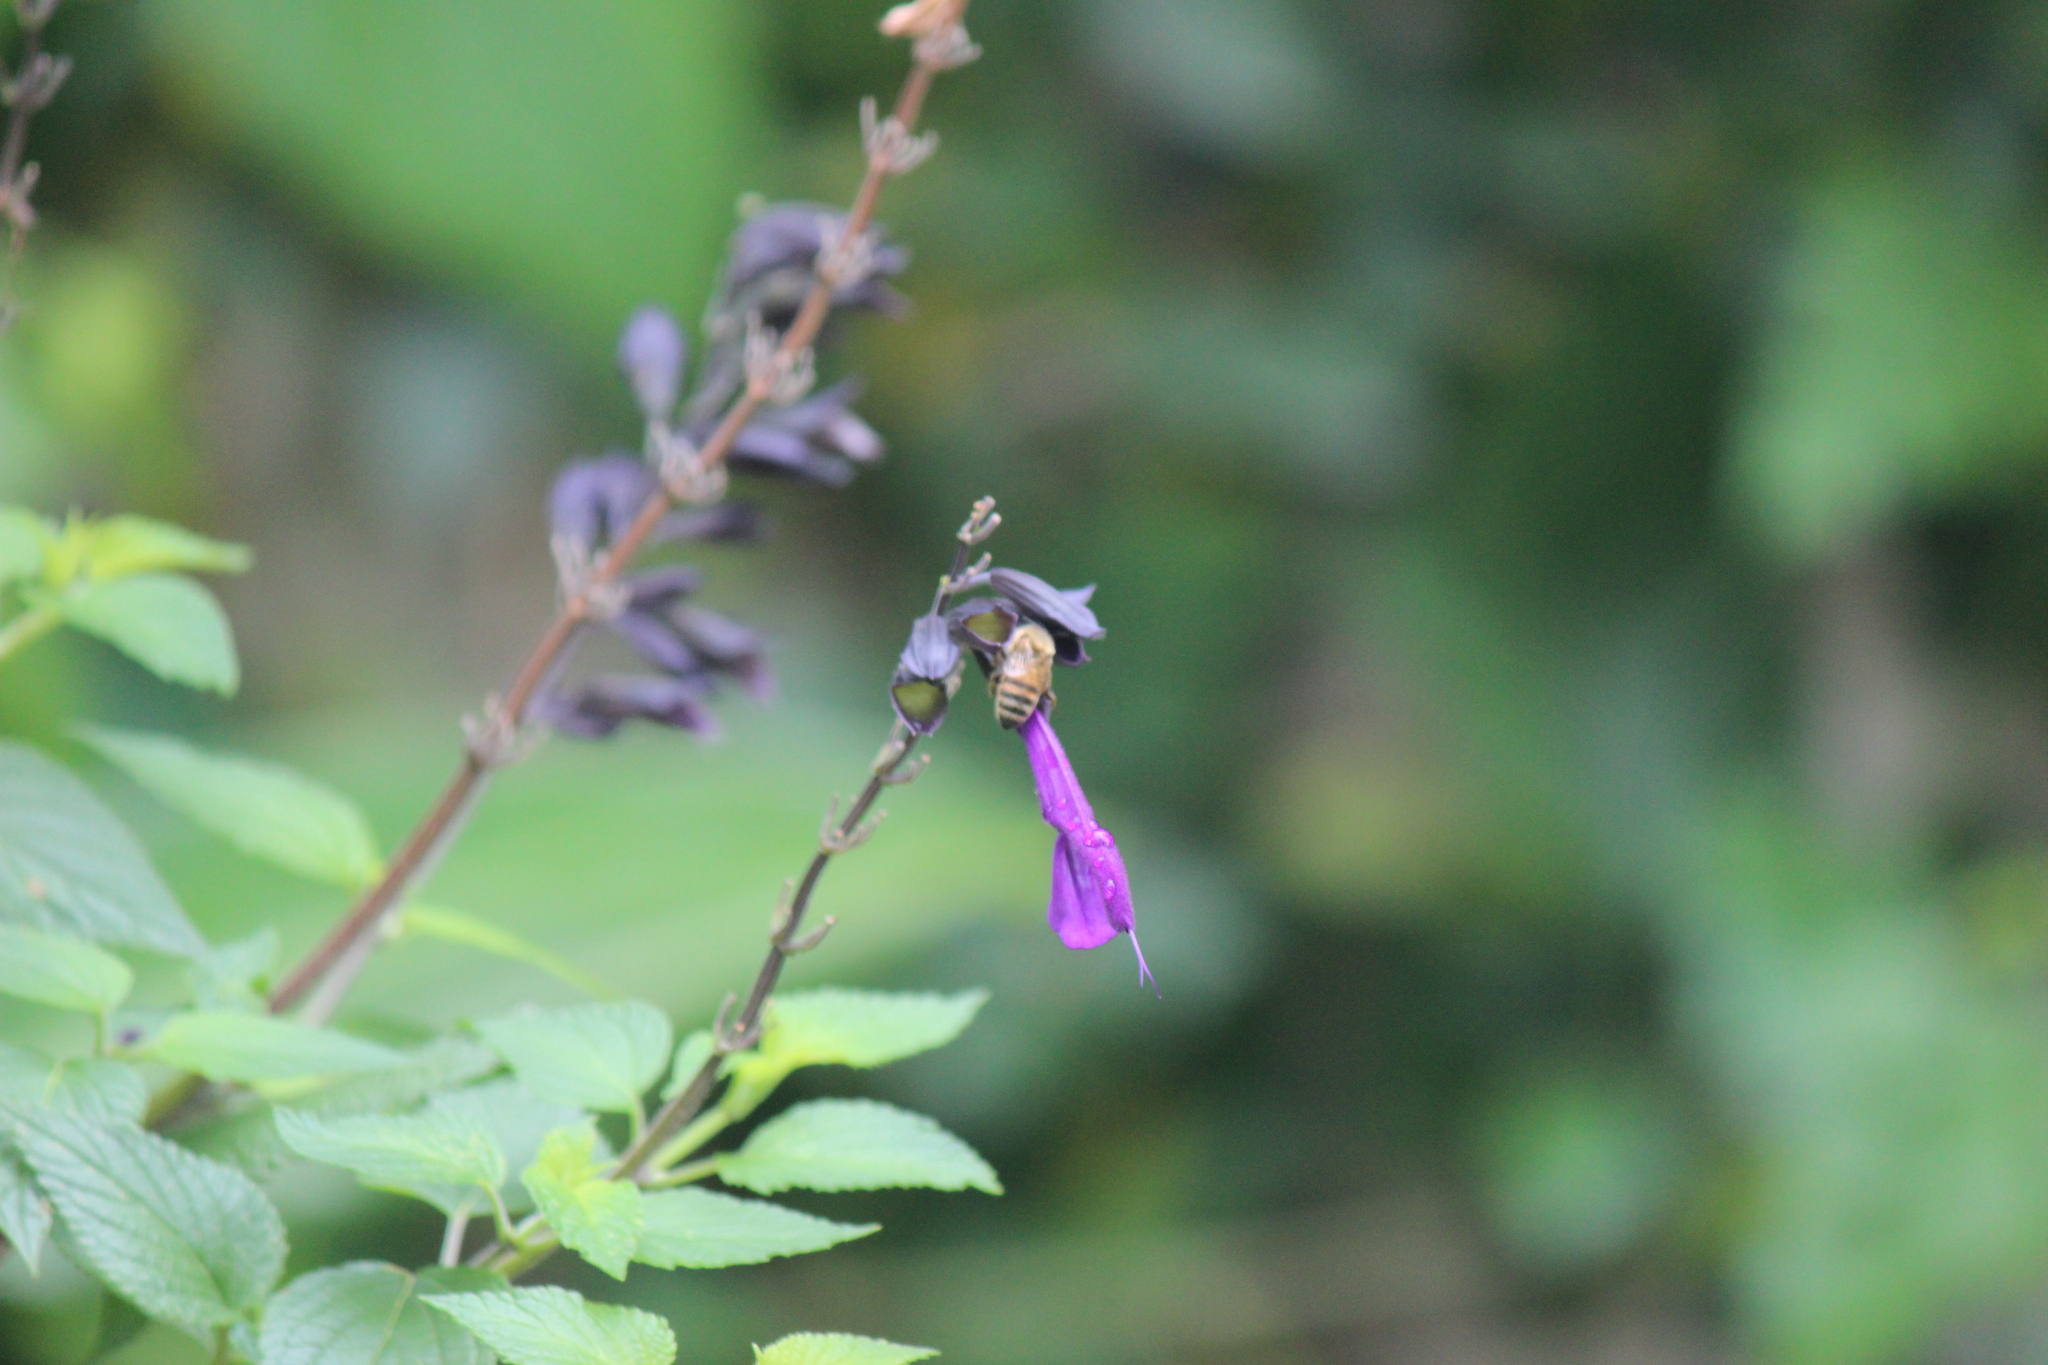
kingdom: Animalia
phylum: Arthropoda
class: Insecta
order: Hymenoptera
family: Apidae
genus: Apis
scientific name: Apis mellifera
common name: Honey bee
